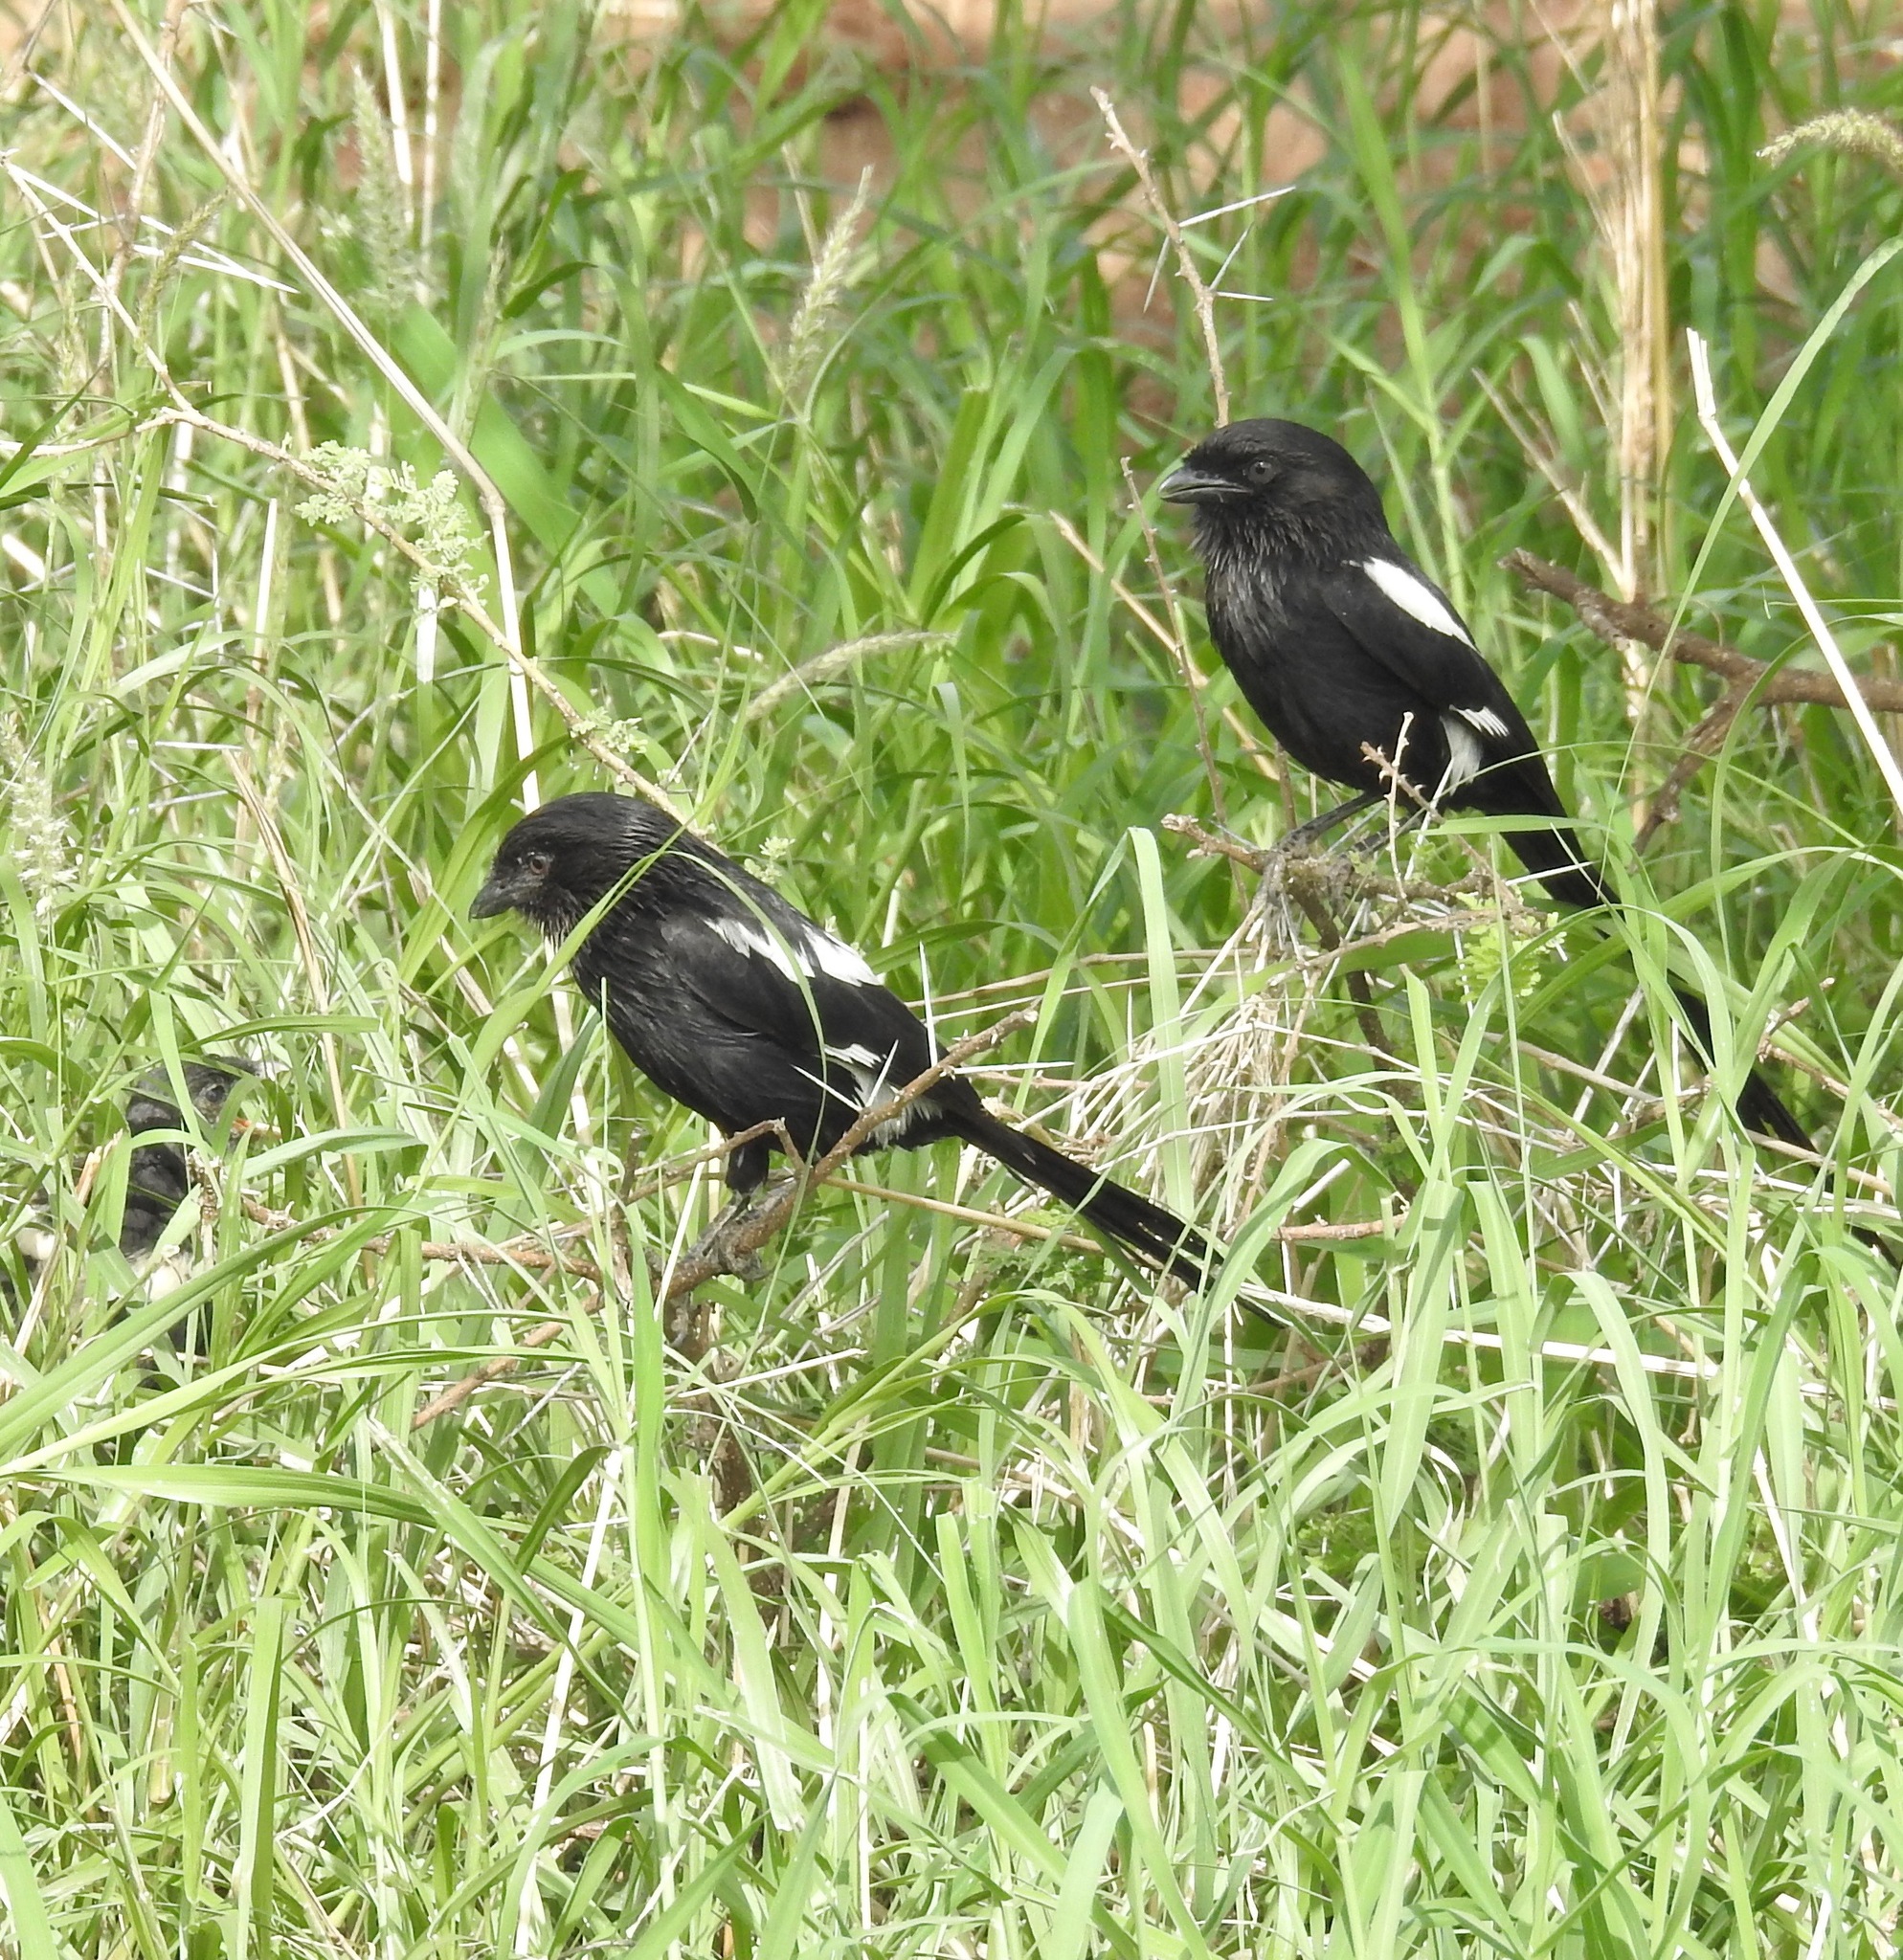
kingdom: Animalia
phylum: Chordata
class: Aves
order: Passeriformes
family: Laniidae
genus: Urolestes
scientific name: Urolestes melanoleucus
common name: Magpie shrike
